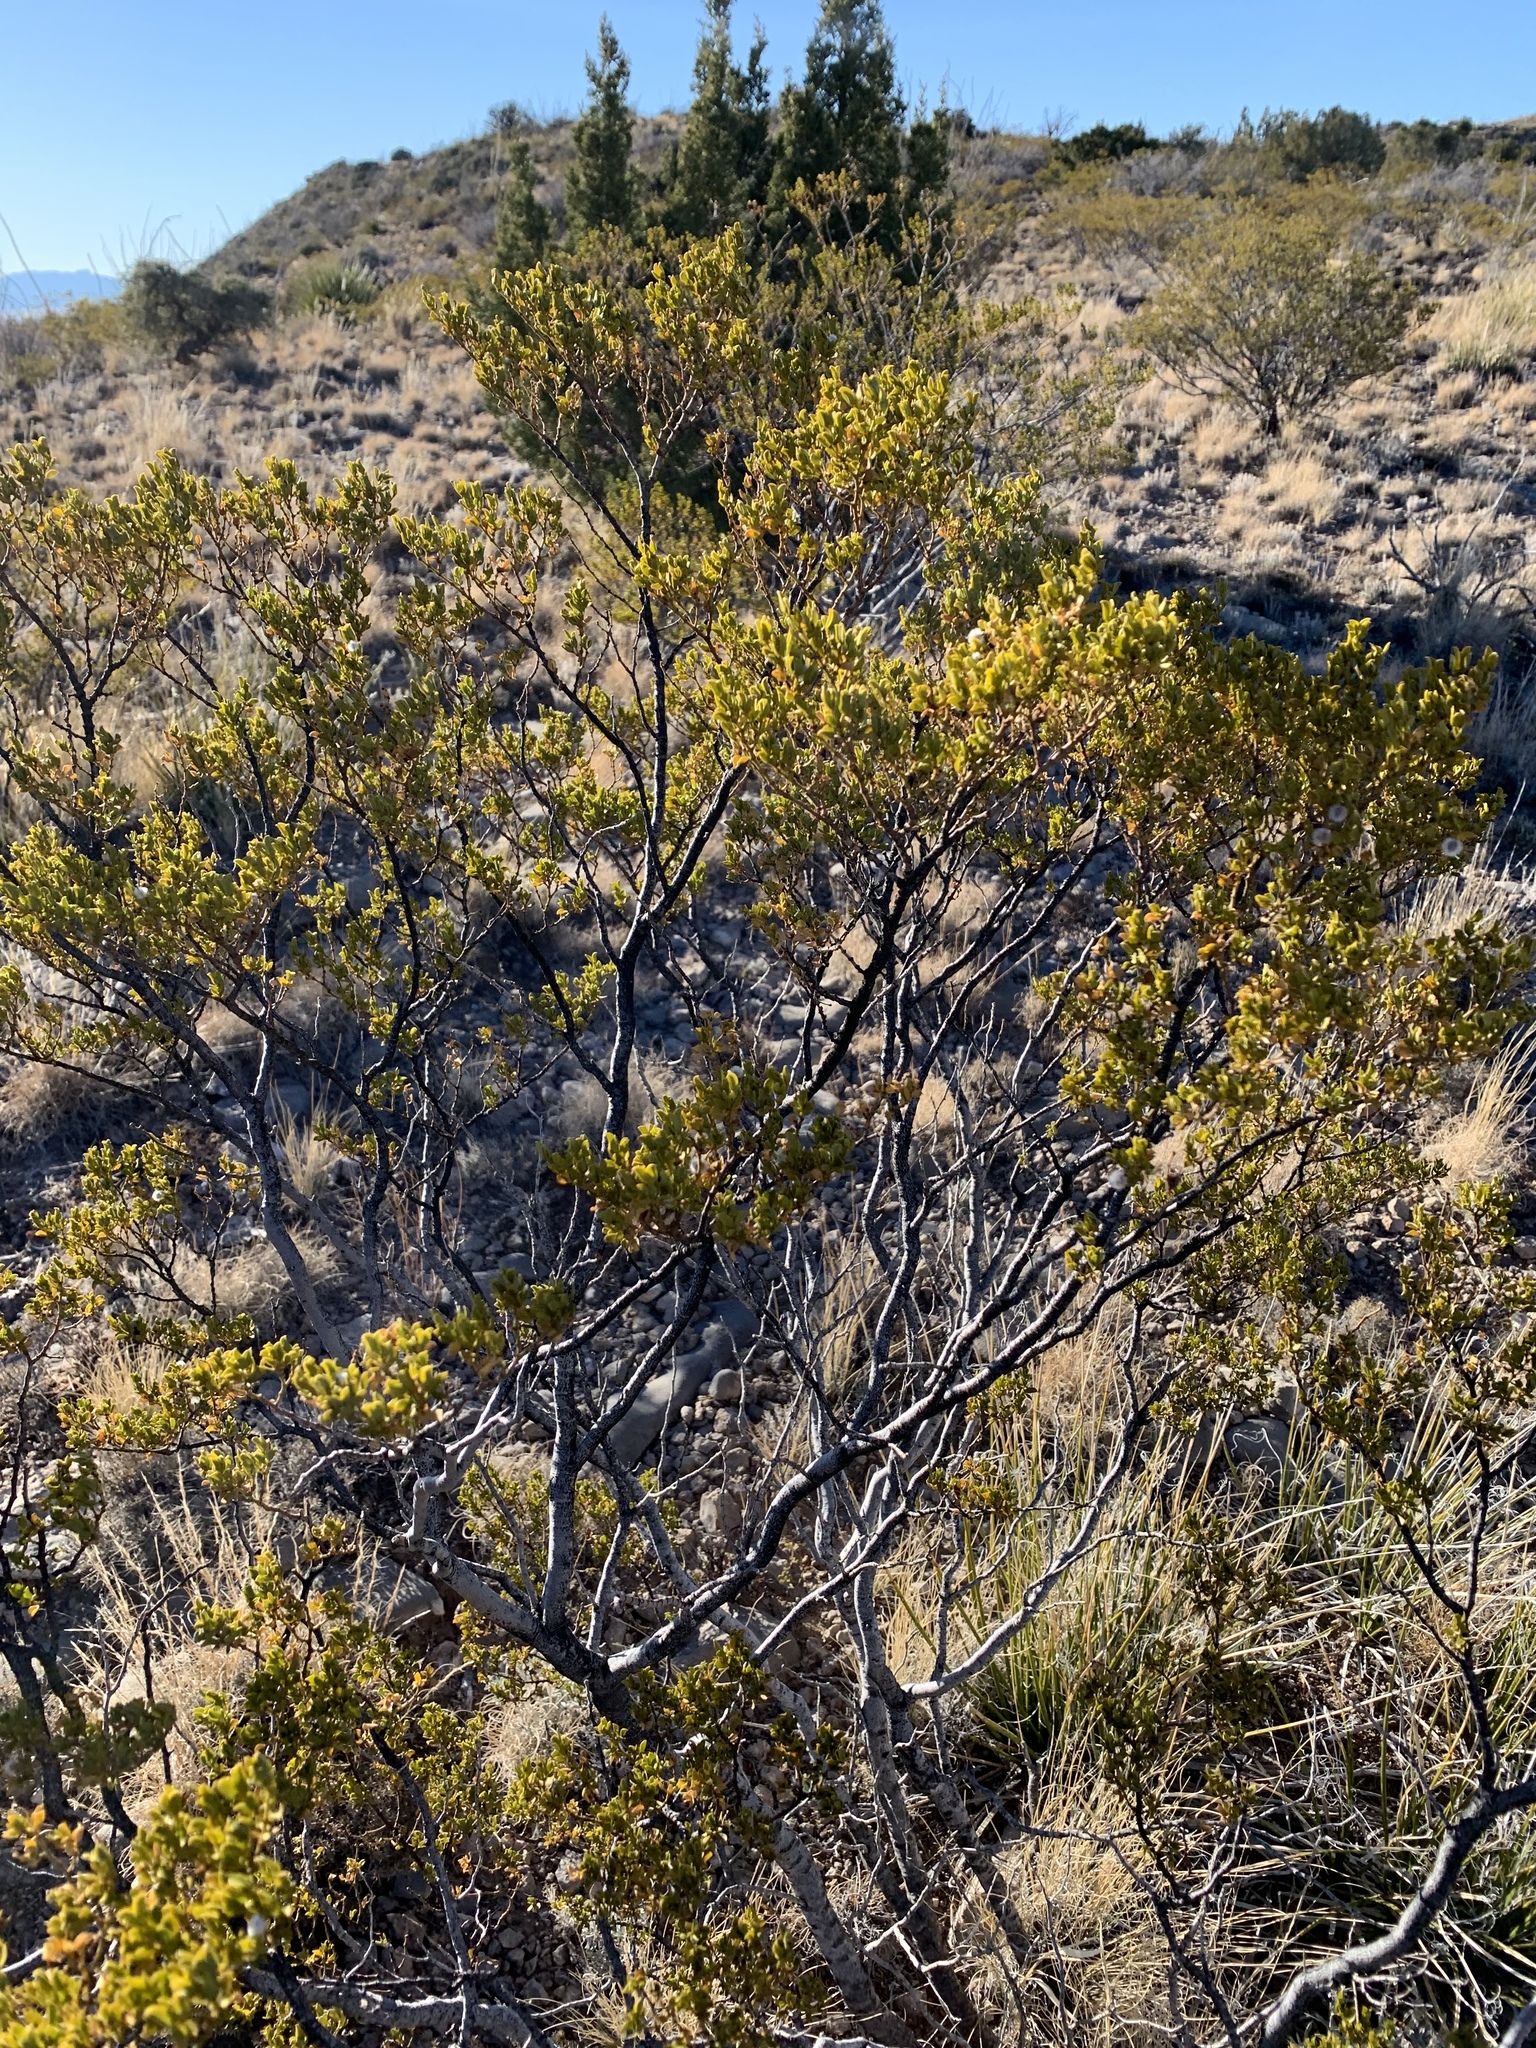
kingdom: Plantae
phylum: Tracheophyta
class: Magnoliopsida
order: Zygophyllales
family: Zygophyllaceae
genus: Larrea
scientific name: Larrea tridentata
